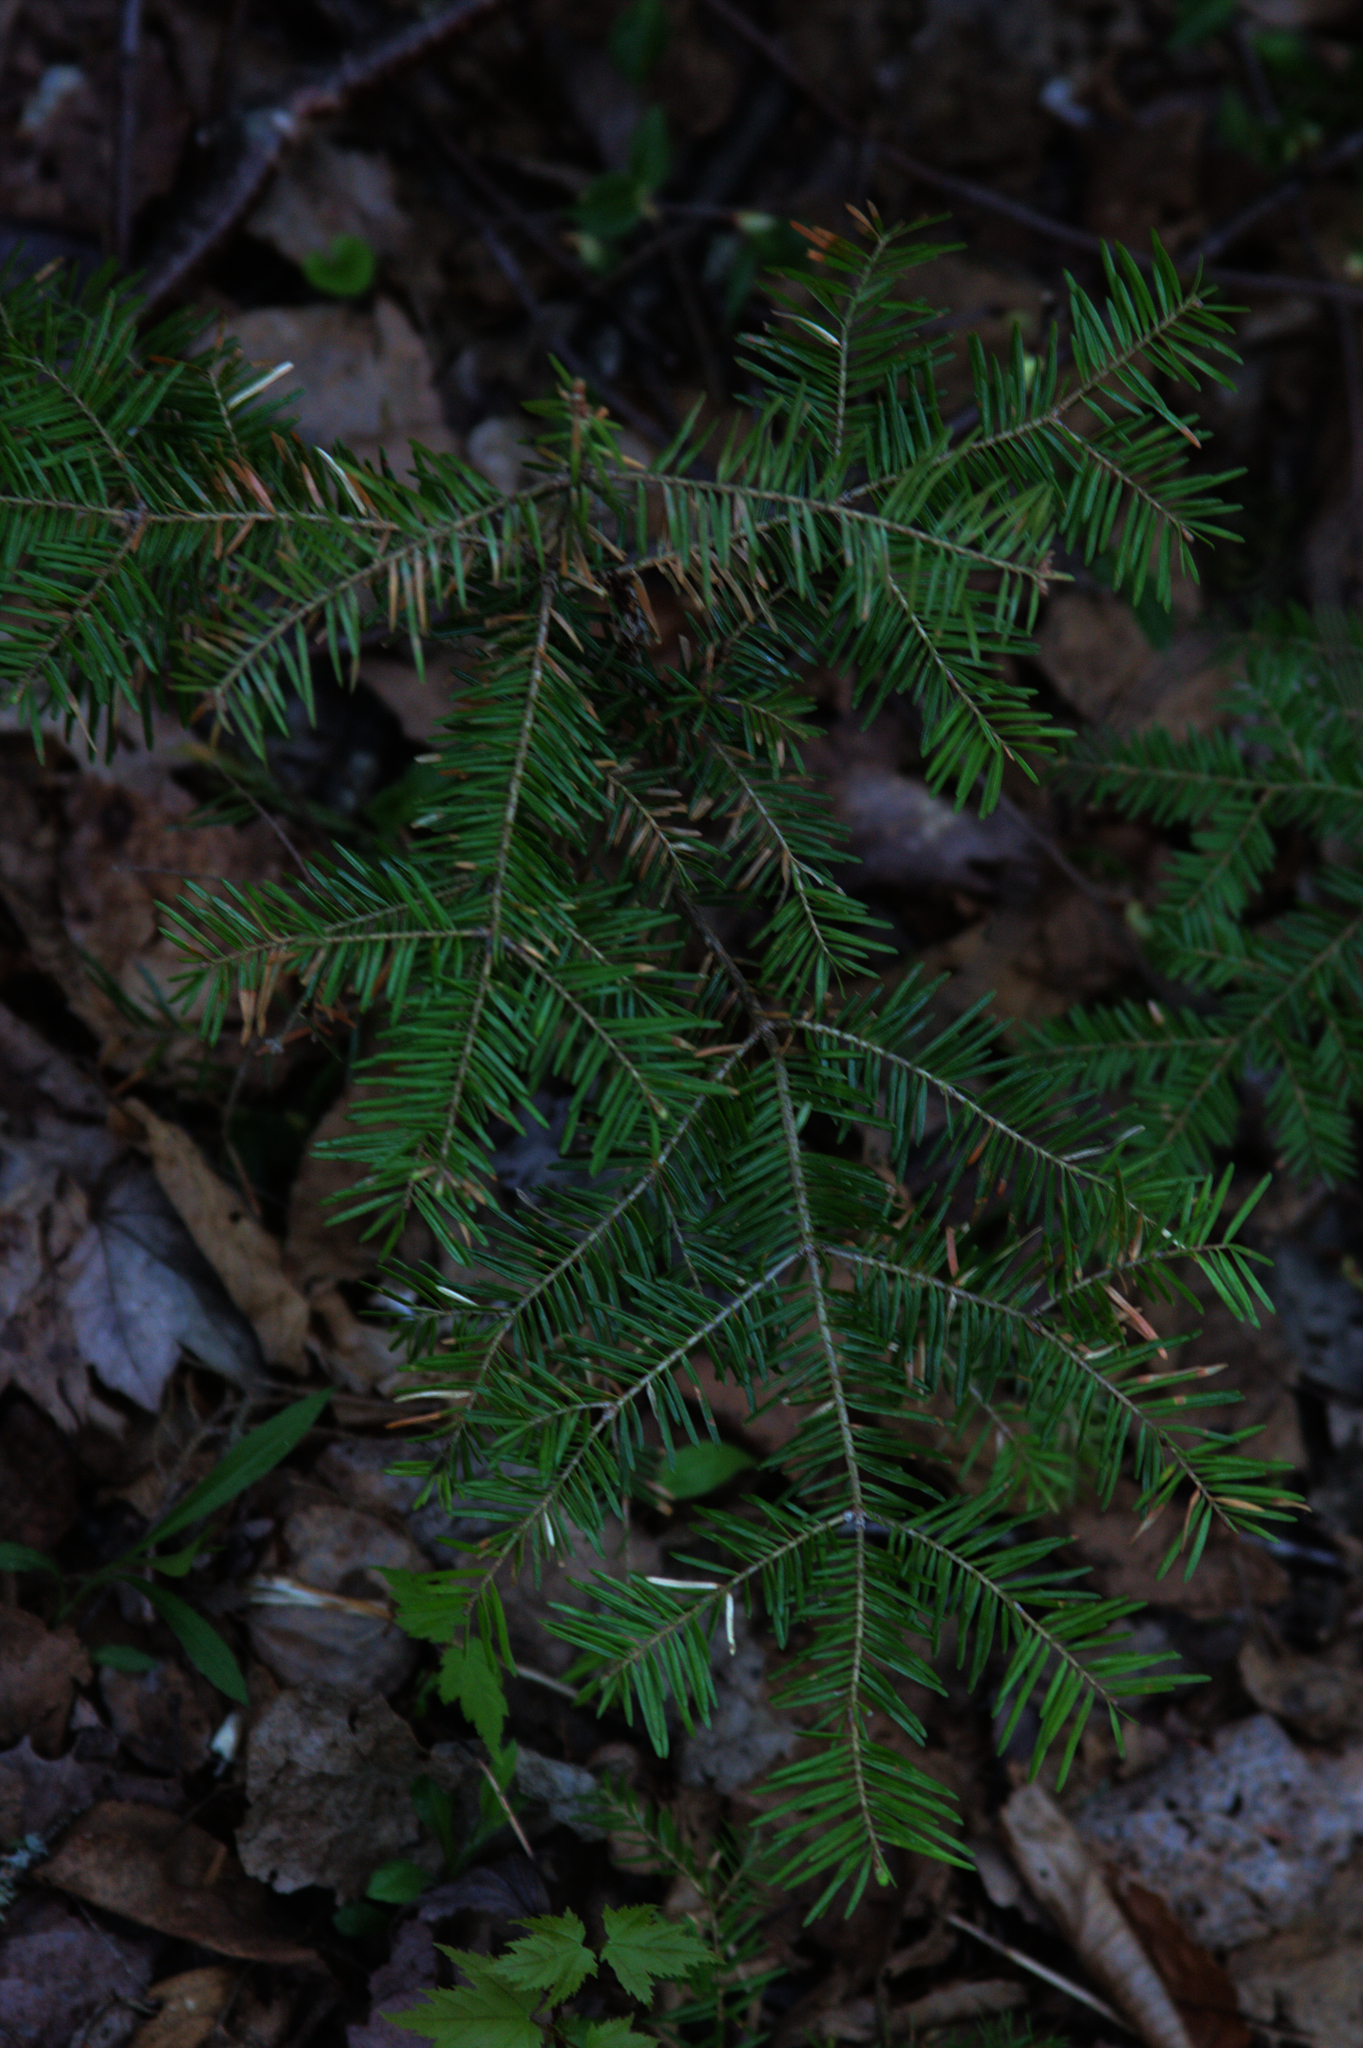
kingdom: Plantae
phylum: Tracheophyta
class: Pinopsida
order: Pinales
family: Pinaceae
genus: Abies
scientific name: Abies balsamea
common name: Balsam fir
